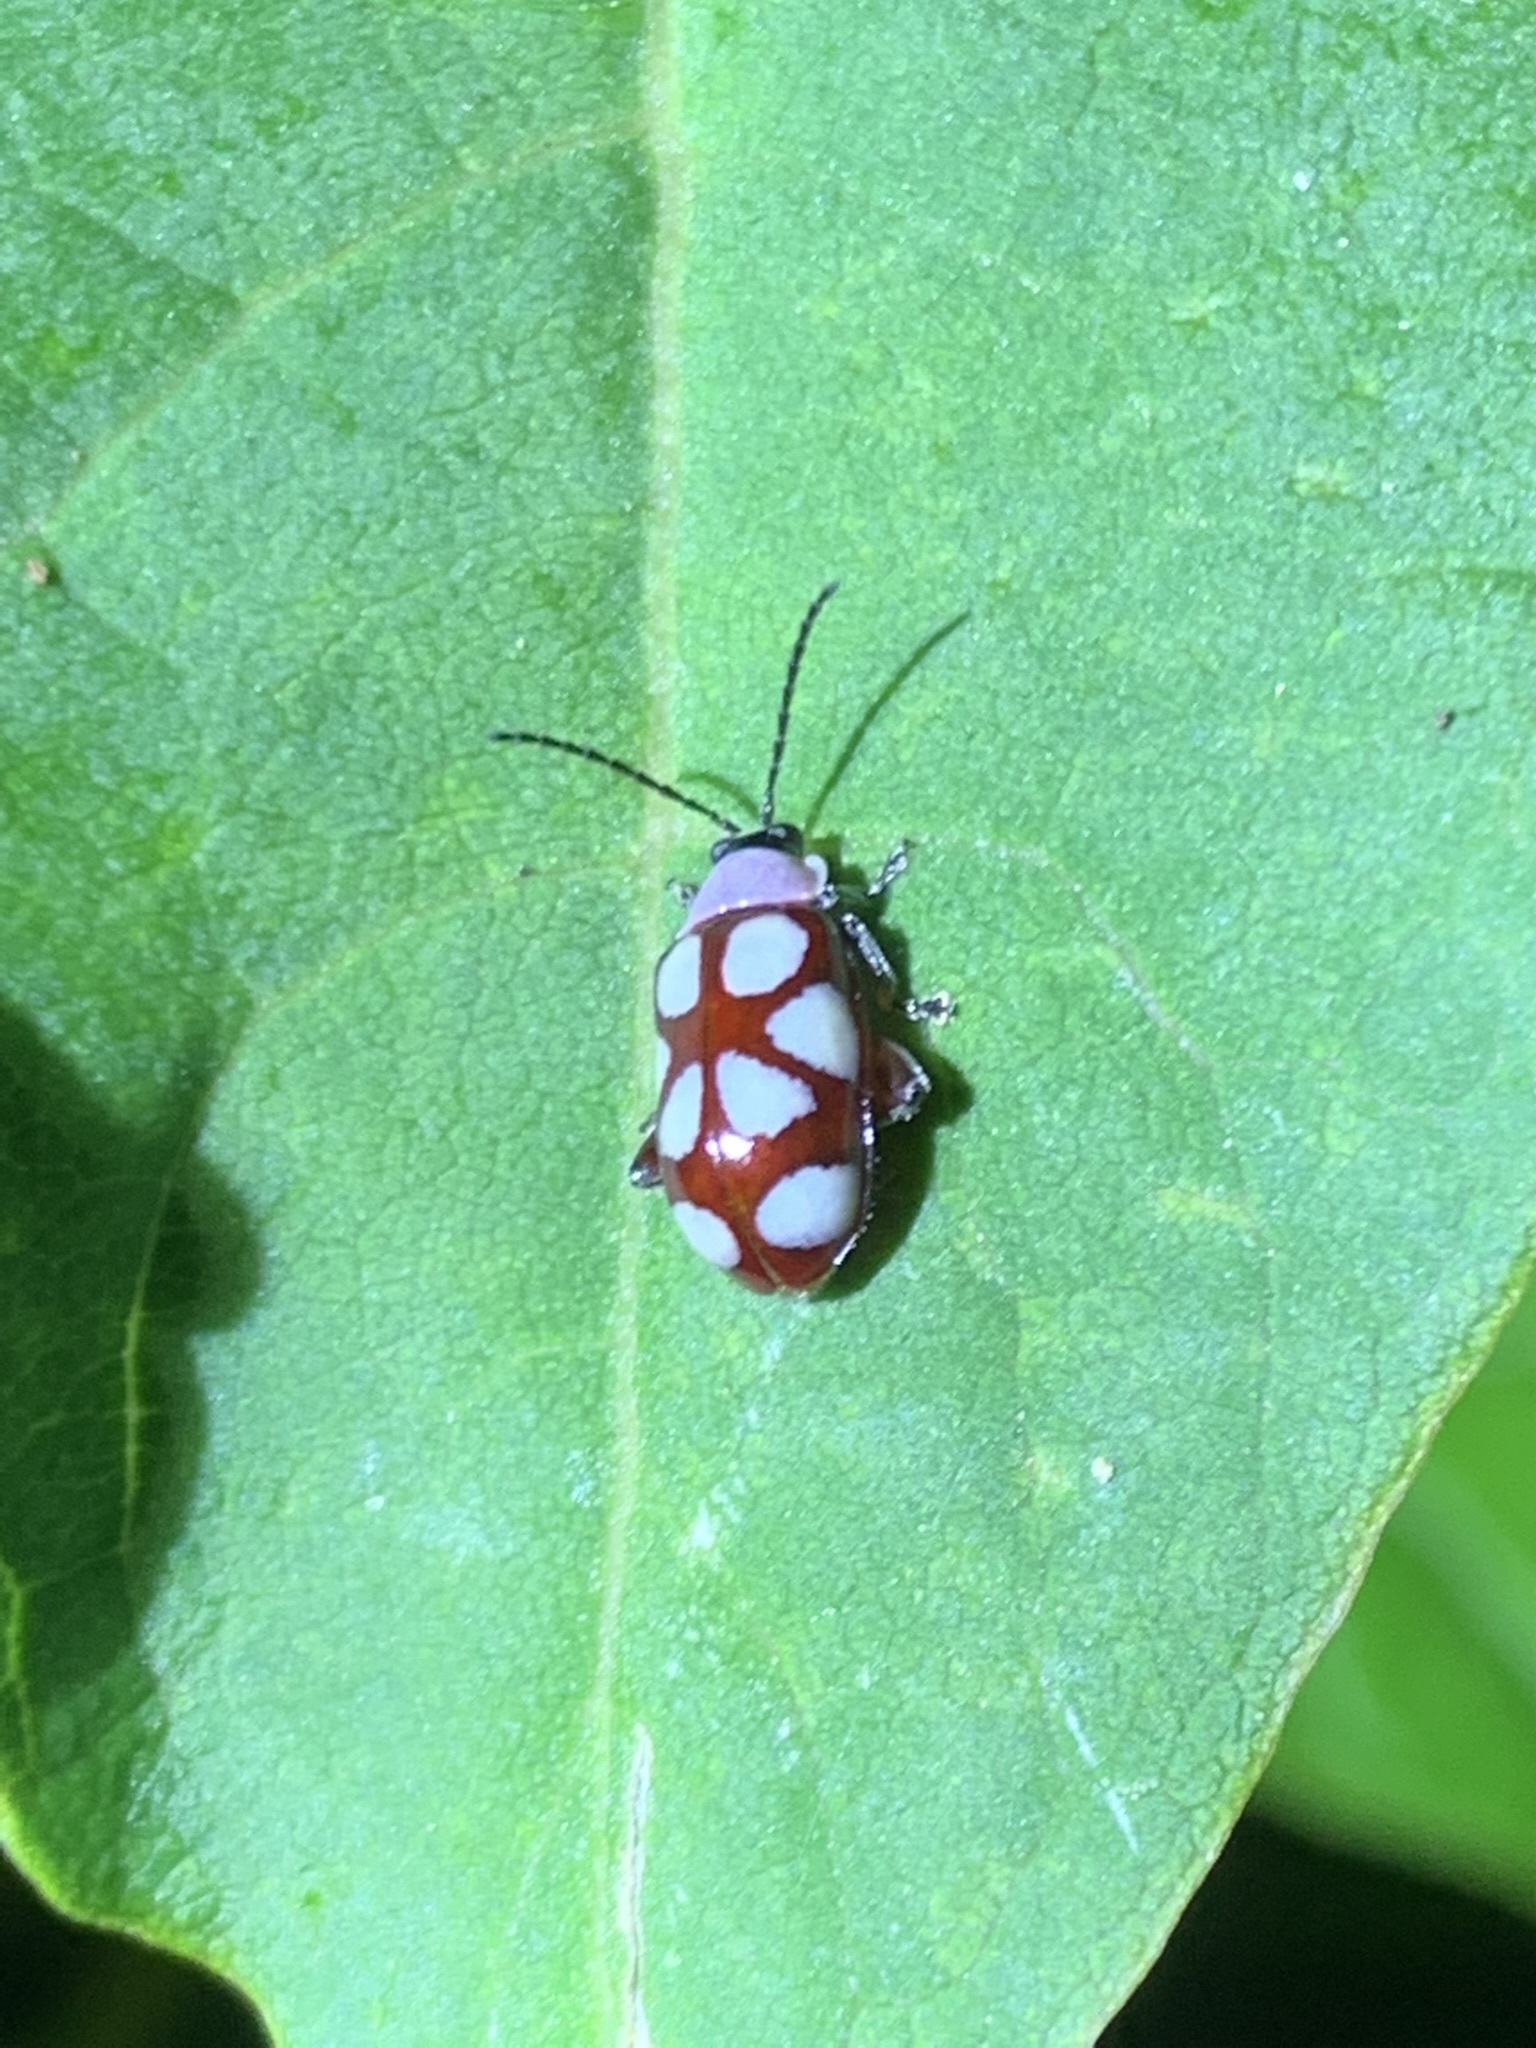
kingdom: Animalia
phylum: Arthropoda
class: Insecta
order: Coleoptera
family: Chrysomelidae
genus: Omophoita
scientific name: Omophoita
